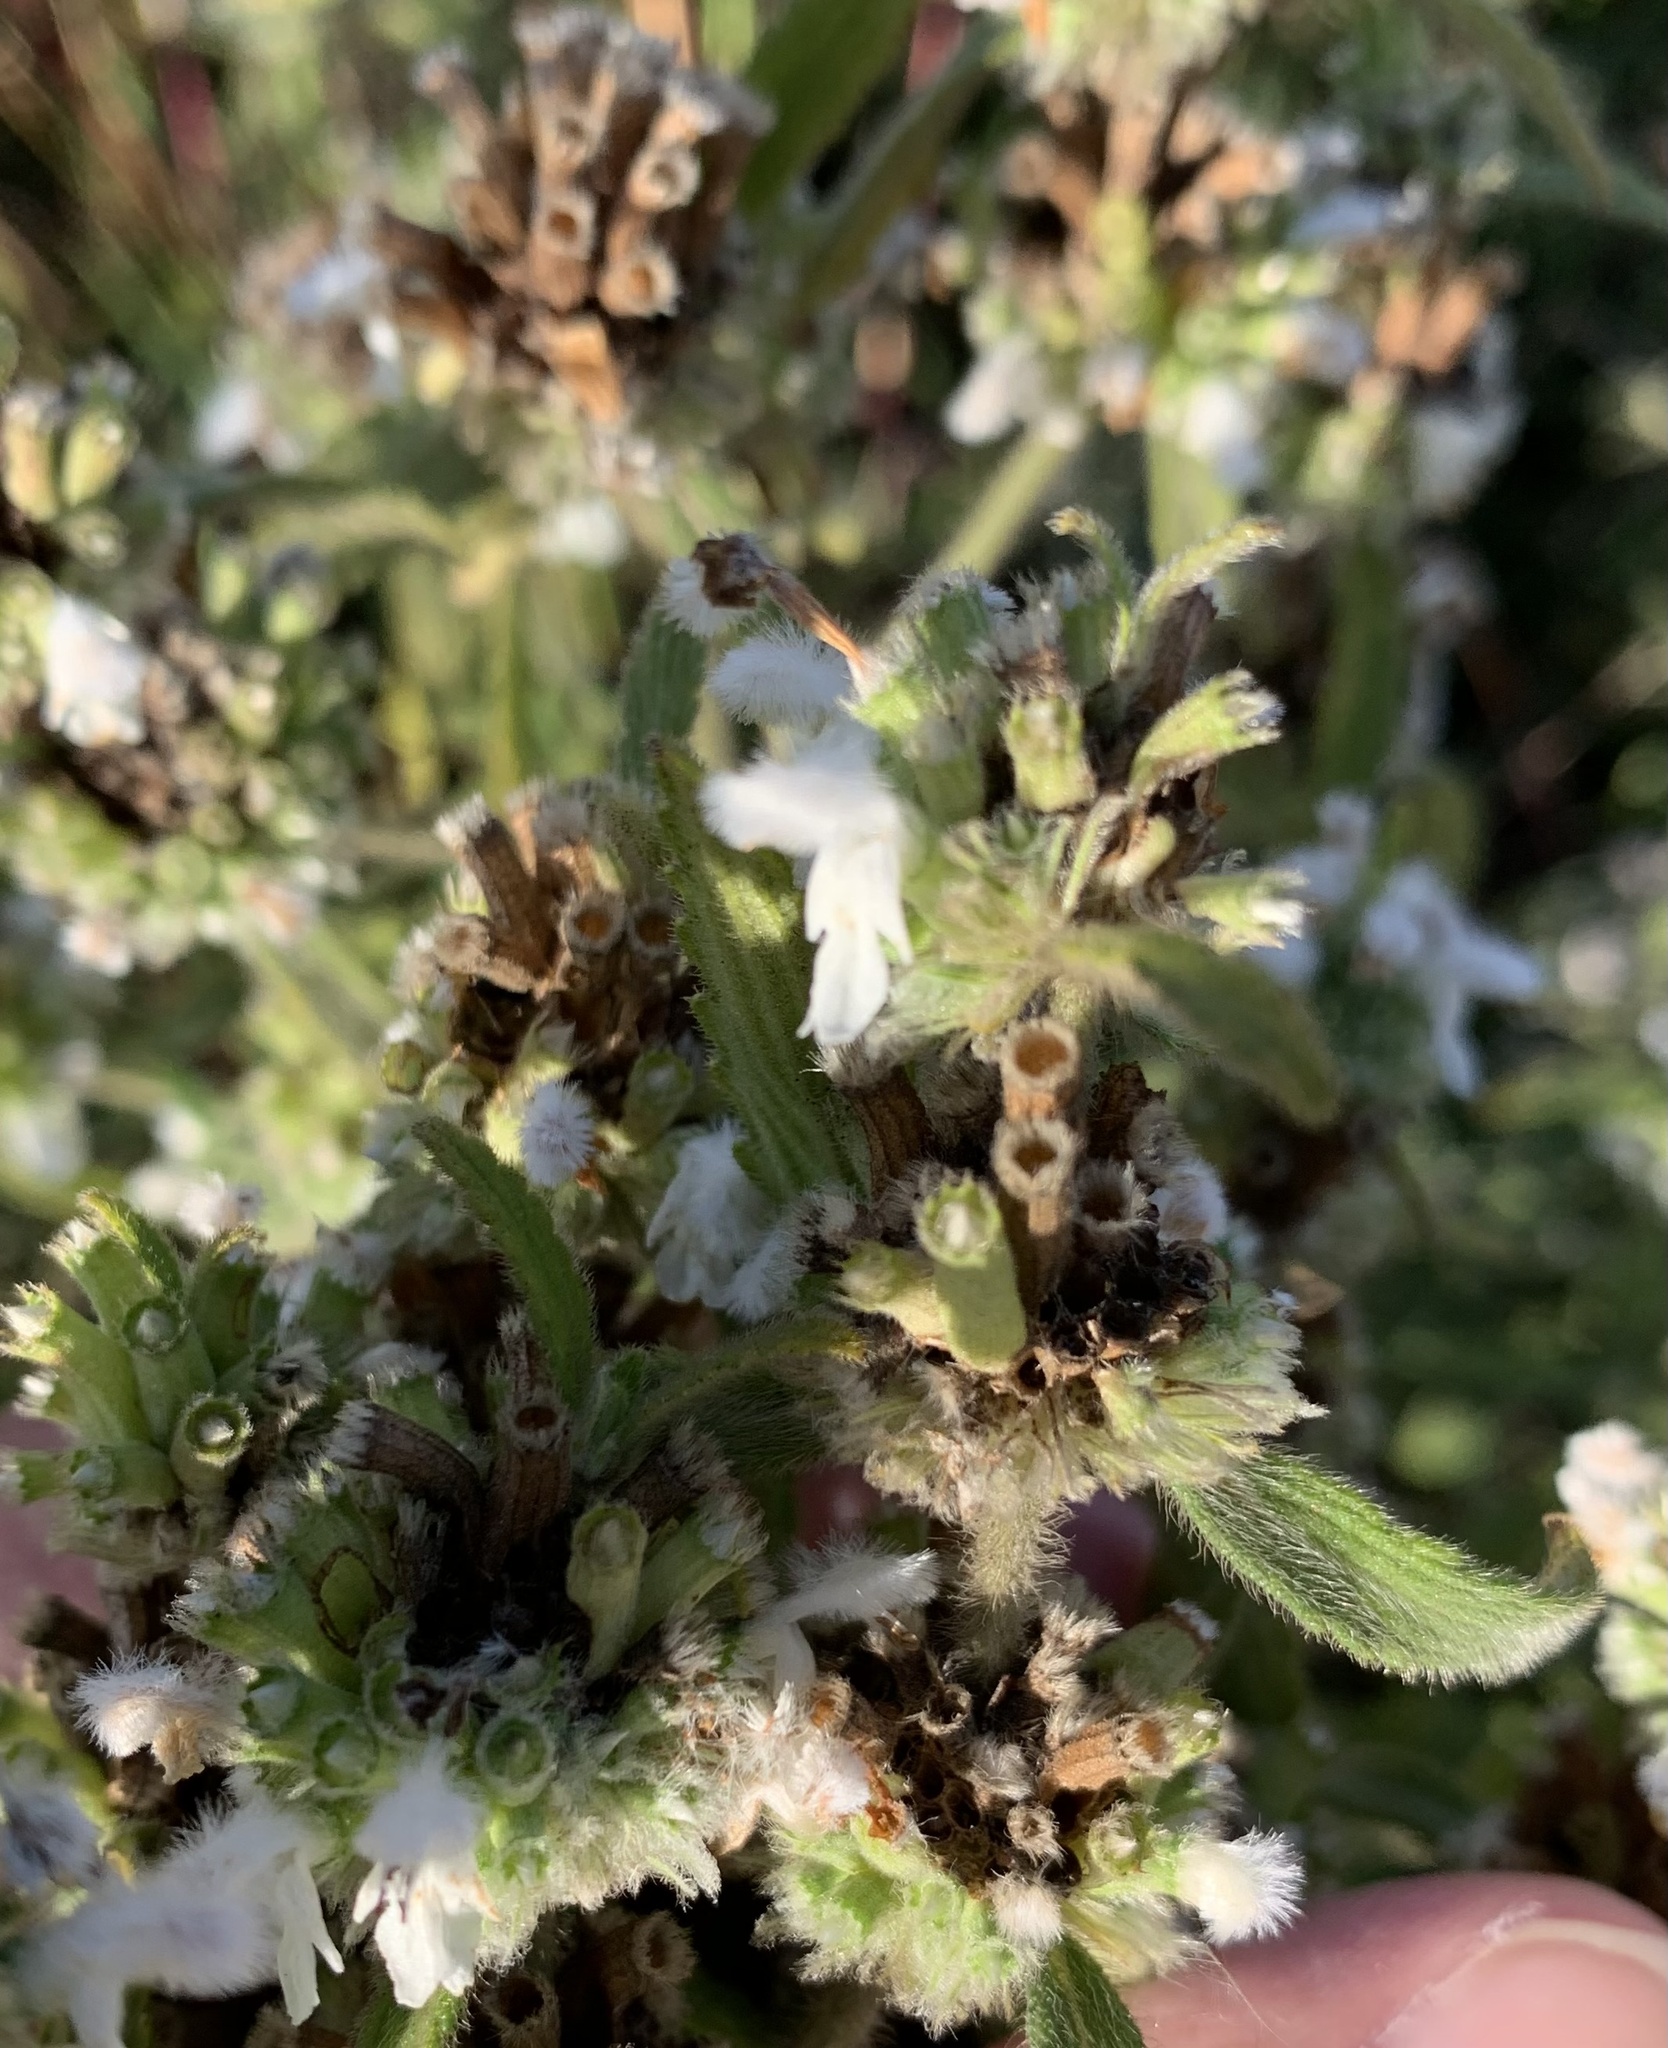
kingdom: Plantae
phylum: Tracheophyta
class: Magnoliopsida
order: Lamiales
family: Lamiaceae
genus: Leucas
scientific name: Leucas stelligera
